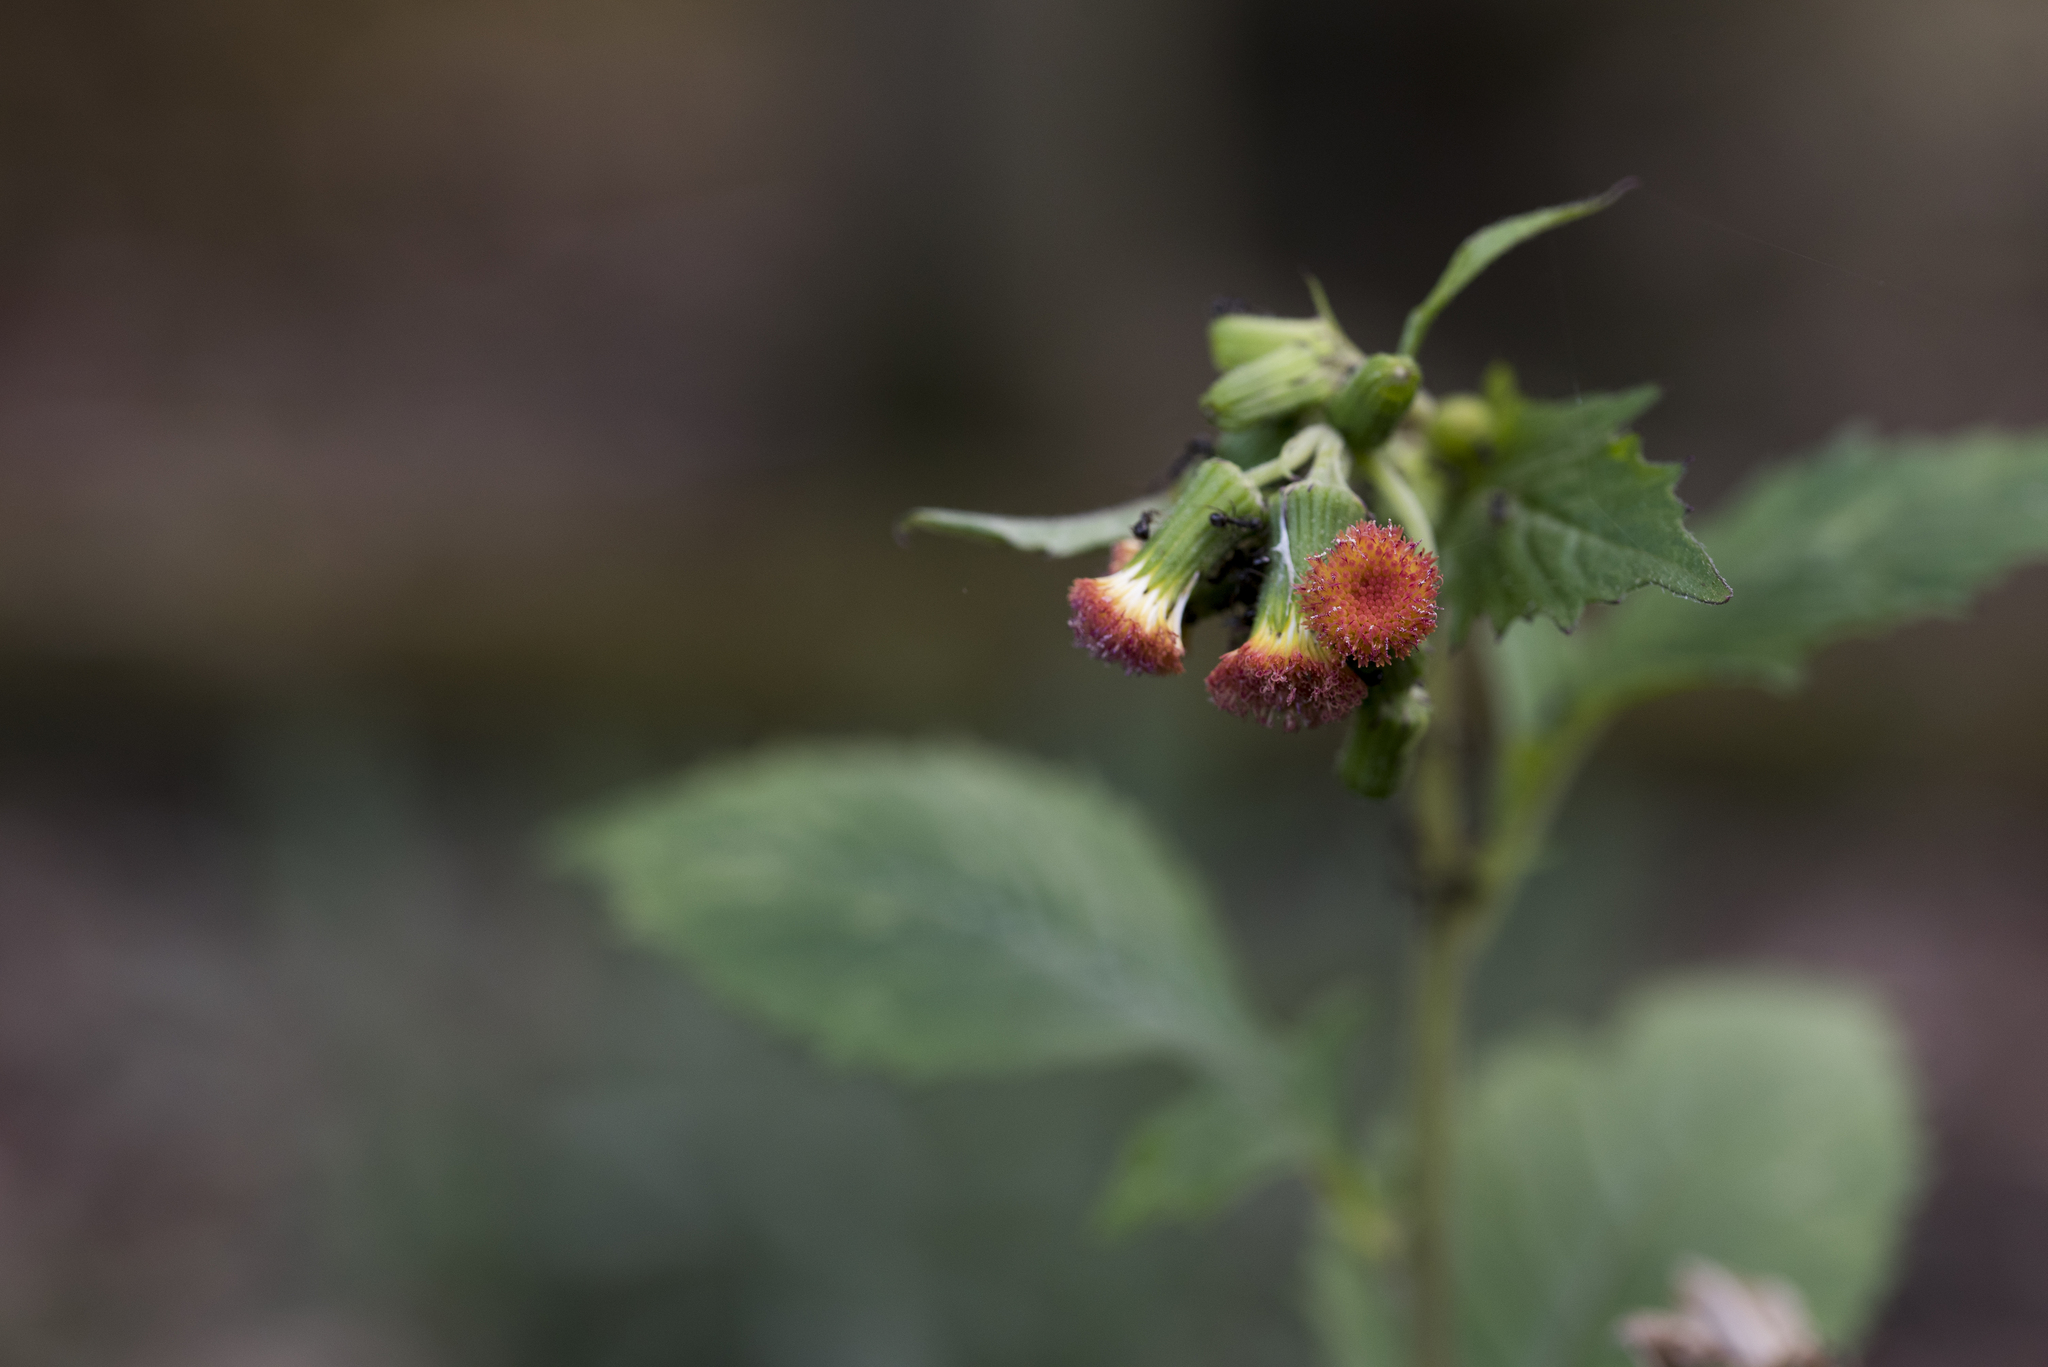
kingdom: Plantae
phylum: Tracheophyta
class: Magnoliopsida
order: Asterales
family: Asteraceae
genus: Crassocephalum
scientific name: Crassocephalum crepidioides
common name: Redflower ragleaf
